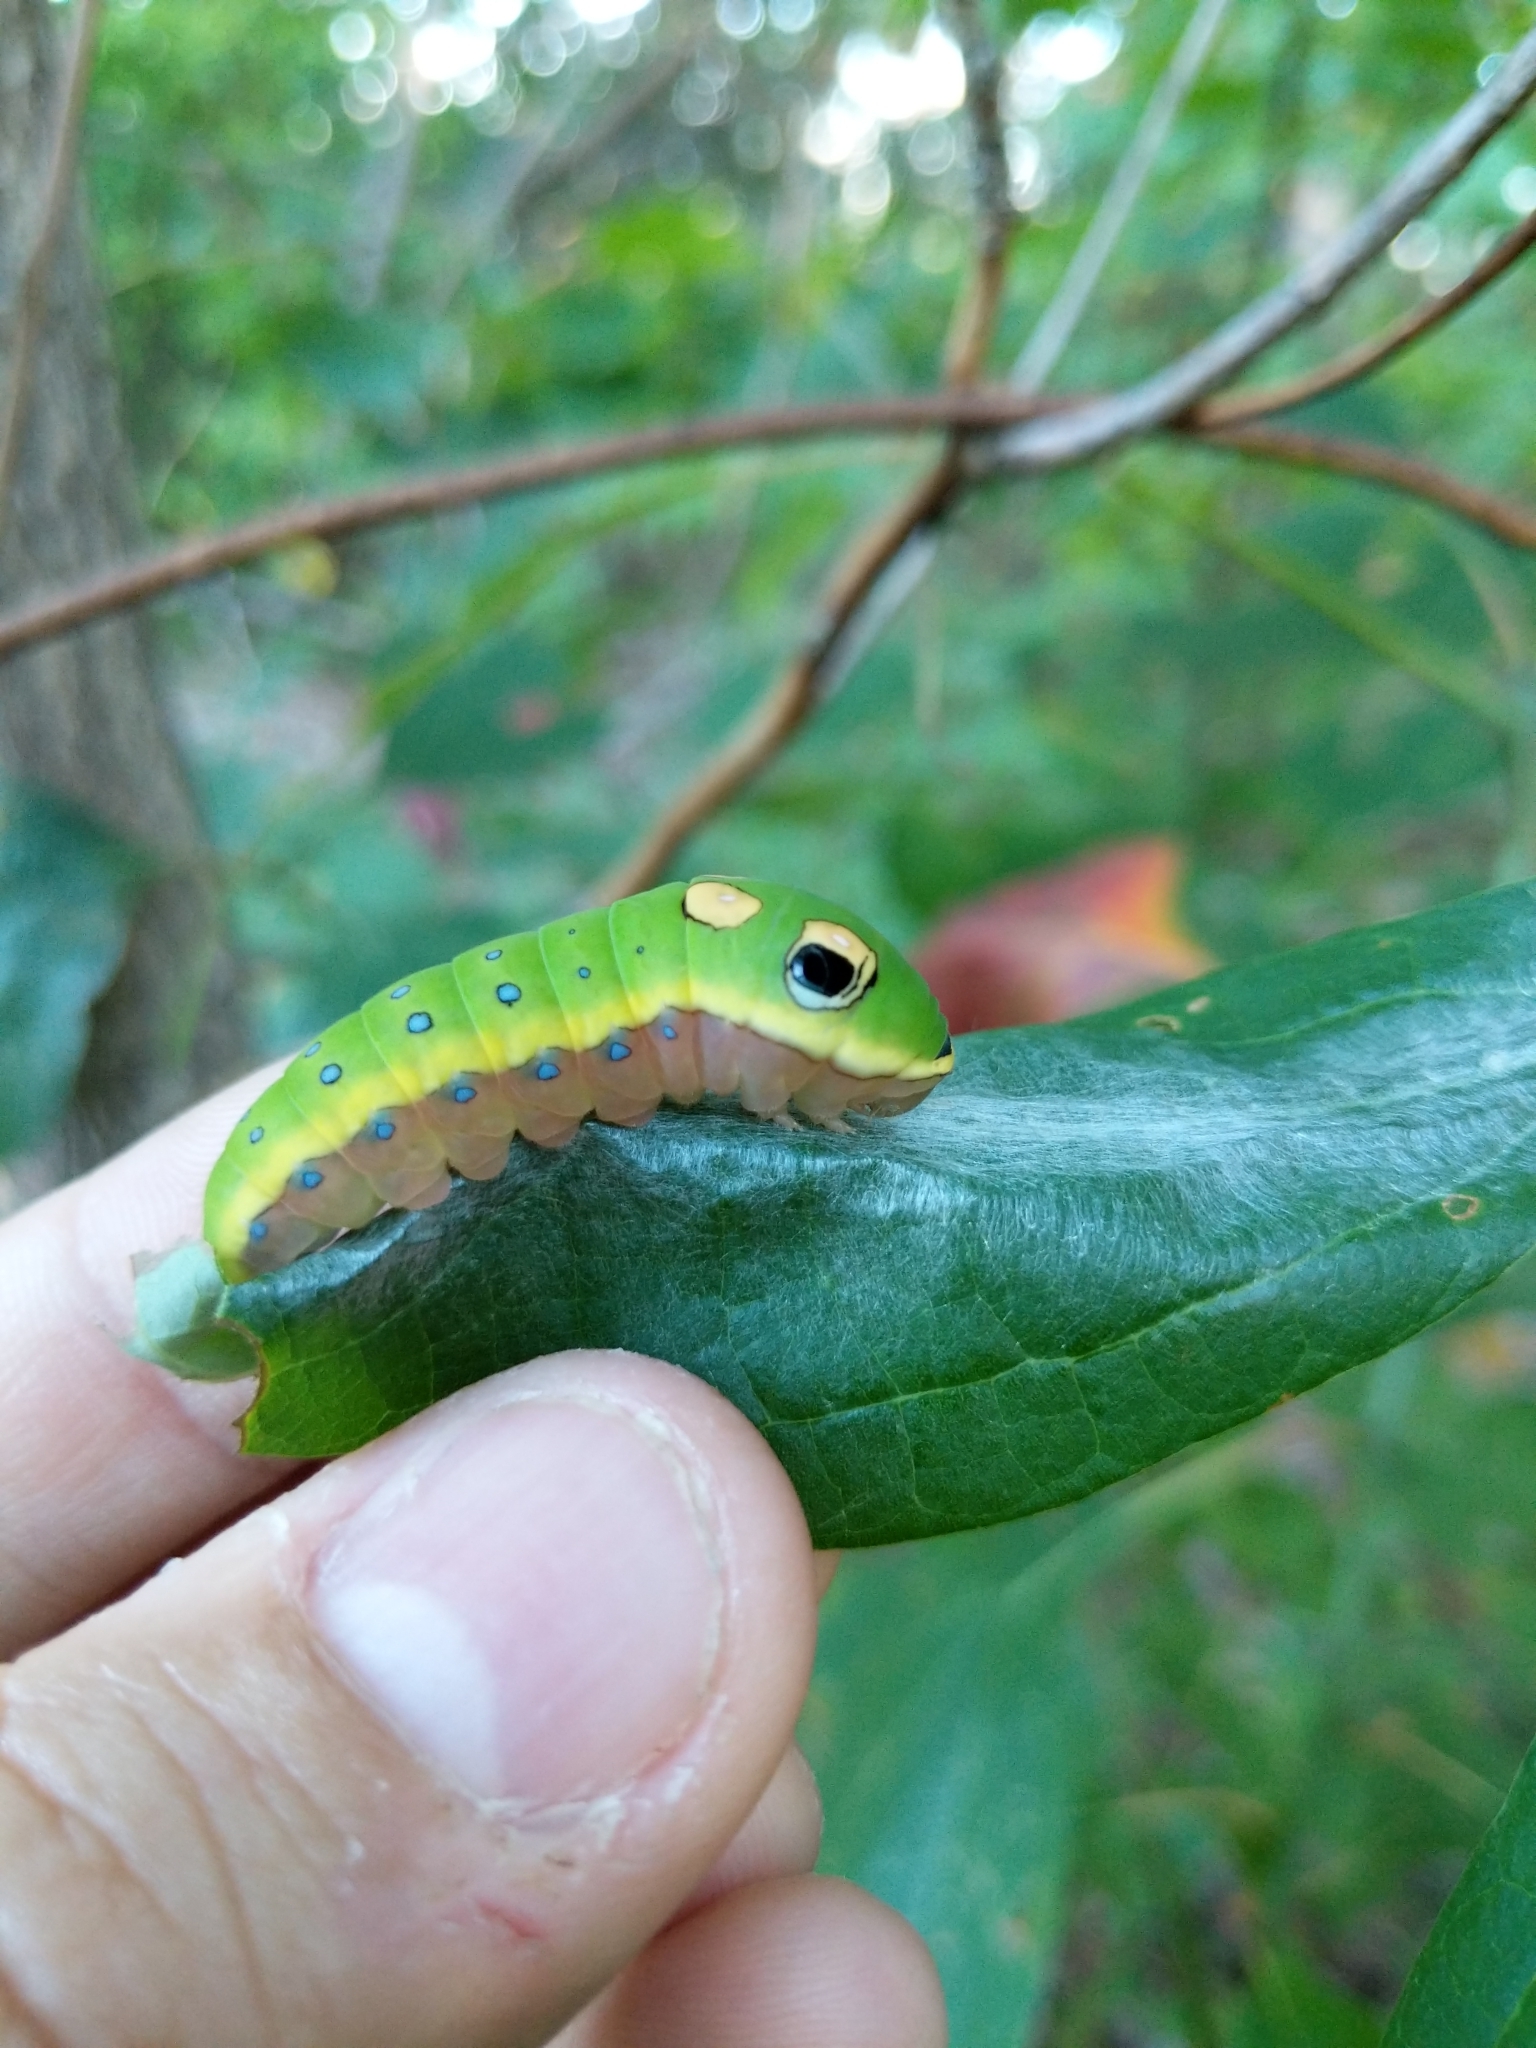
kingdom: Animalia
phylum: Arthropoda
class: Insecta
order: Lepidoptera
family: Papilionidae
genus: Papilio
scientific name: Papilio troilus
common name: Spicebush swallowtail
